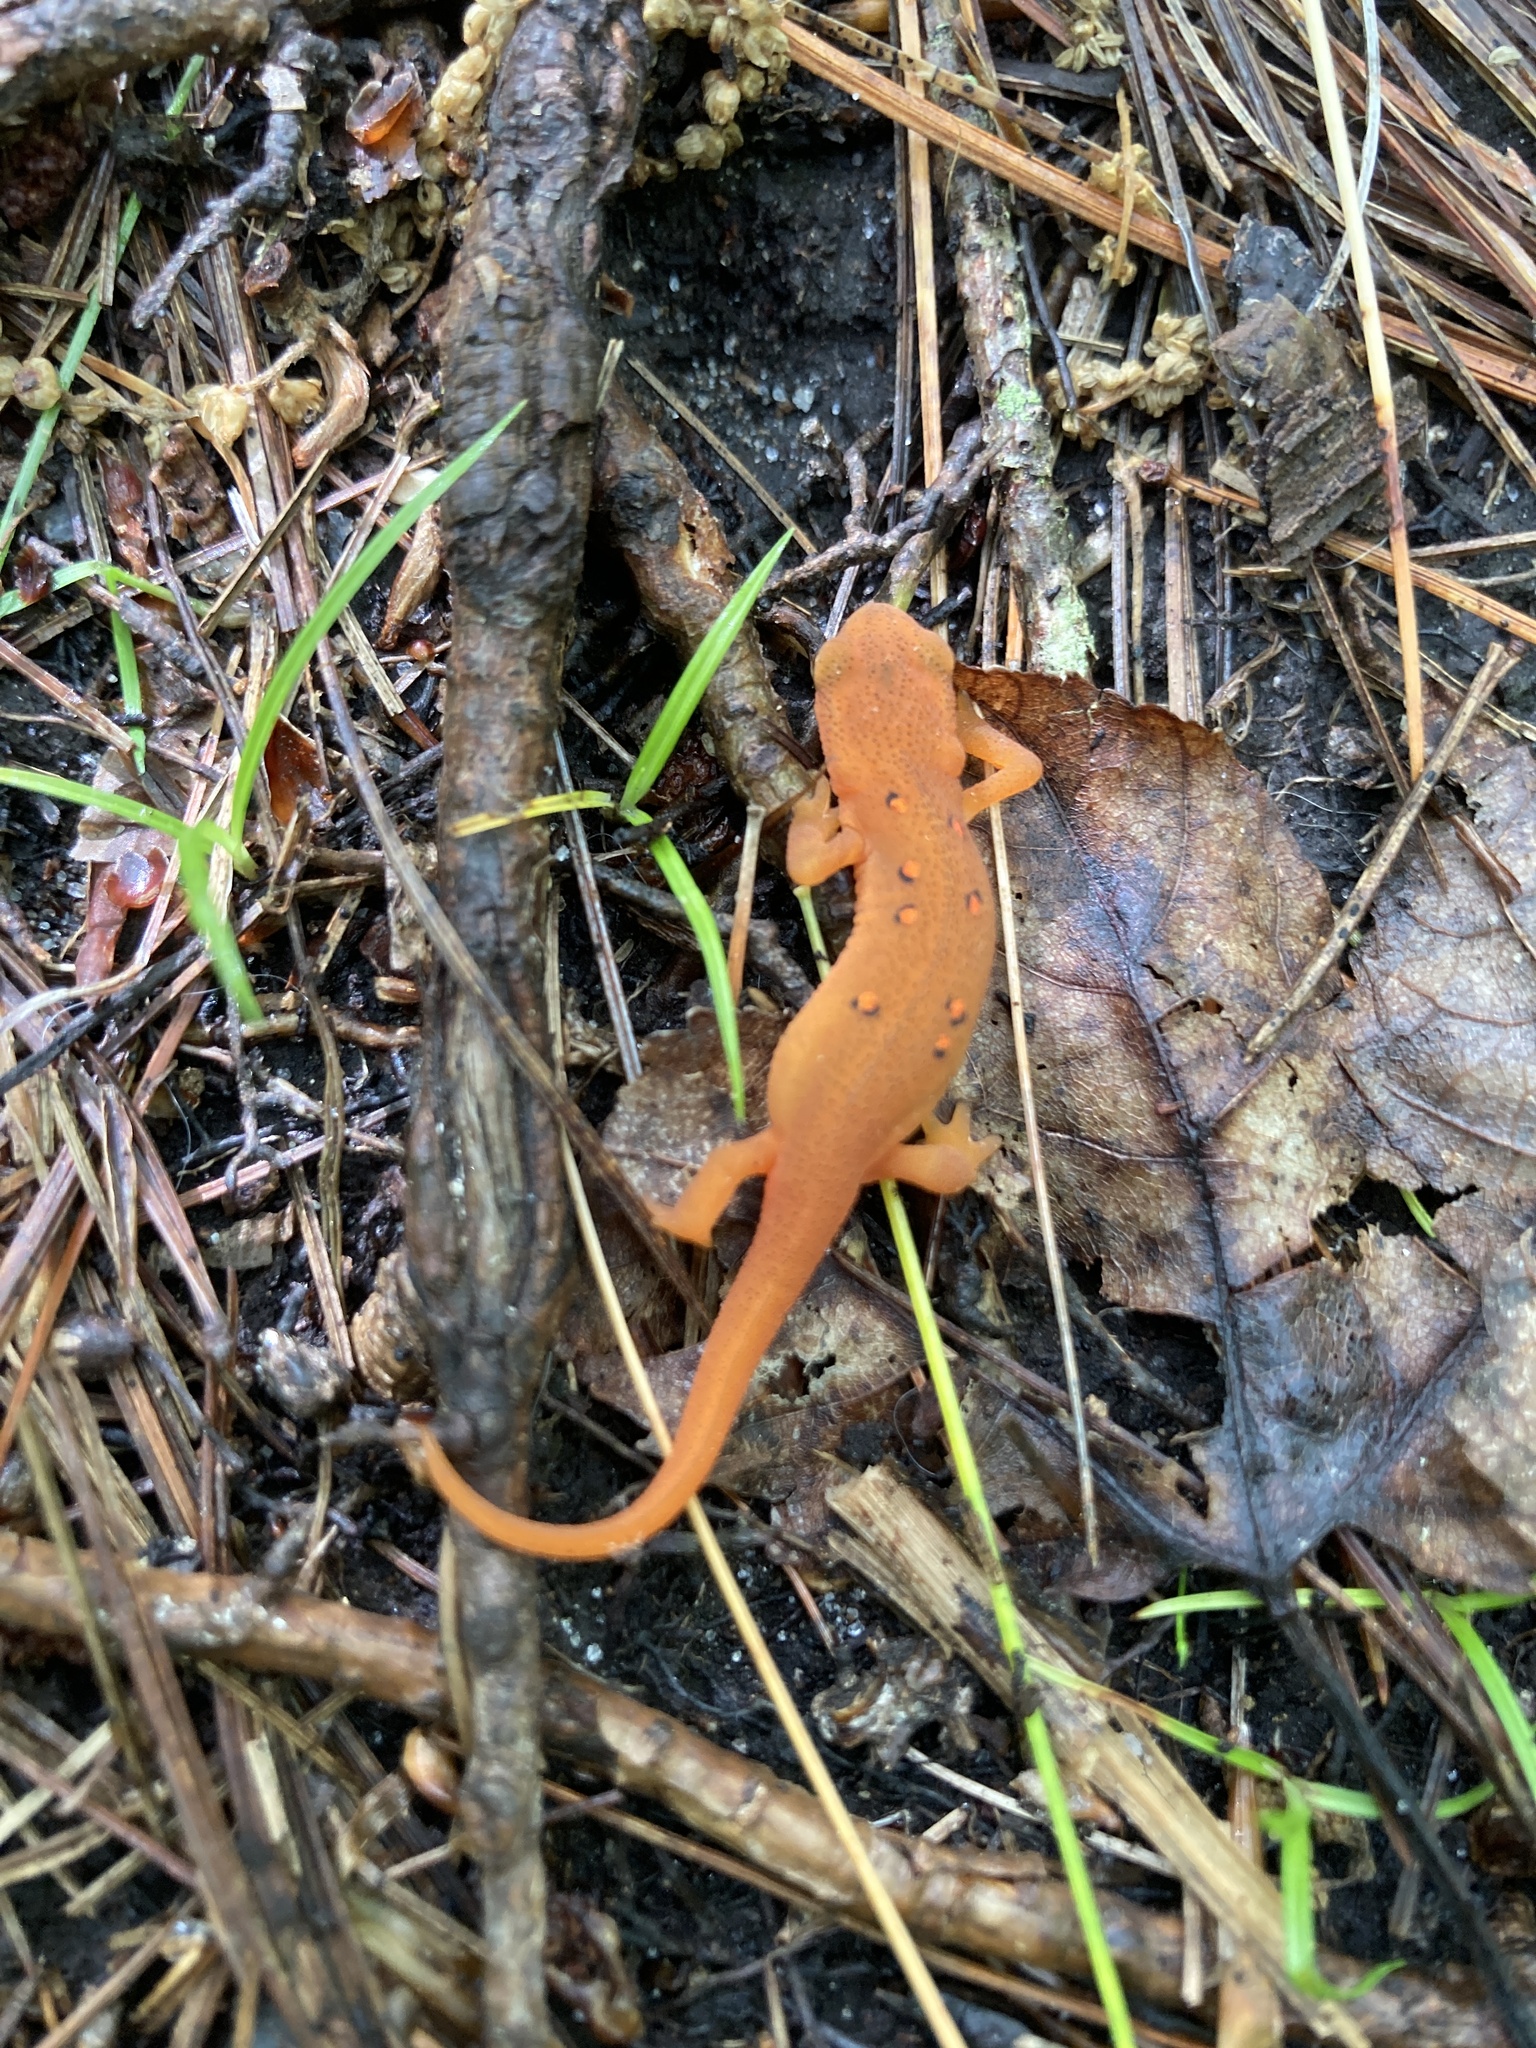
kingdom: Animalia
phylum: Chordata
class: Amphibia
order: Caudata
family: Salamandridae
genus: Notophthalmus
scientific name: Notophthalmus viridescens
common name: Eastern newt
